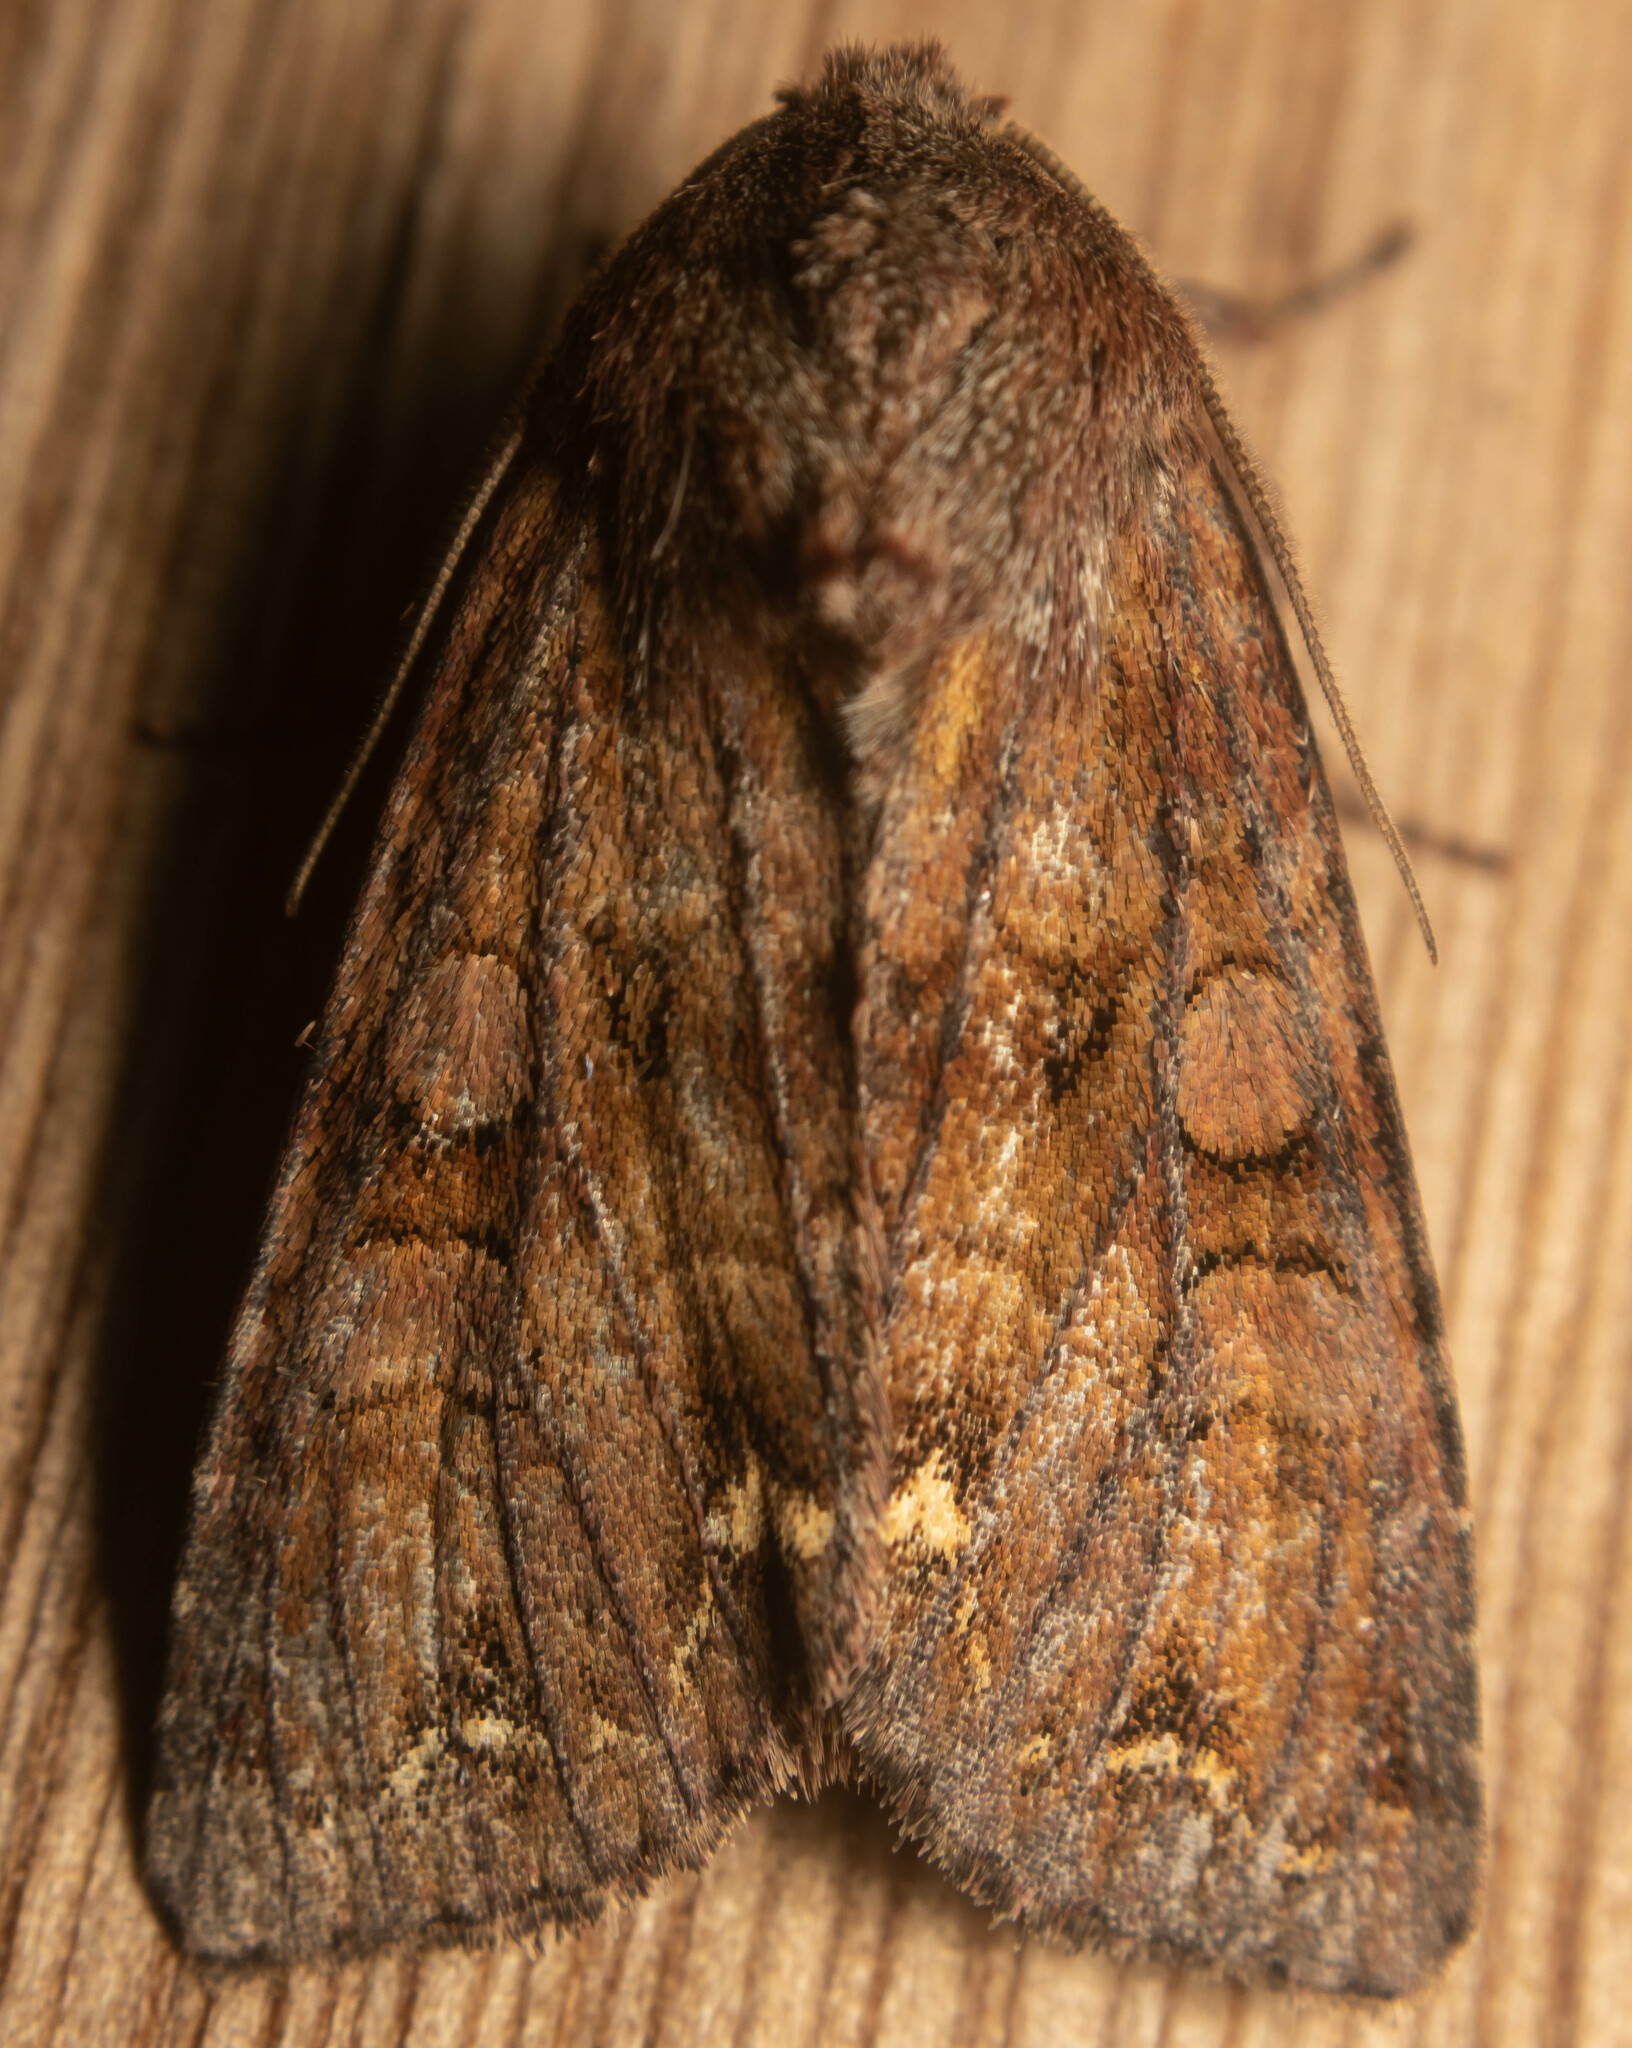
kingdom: Animalia
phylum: Arthropoda
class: Insecta
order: Lepidoptera
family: Noctuidae
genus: Ceramica
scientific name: Ceramica pisi
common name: Broom moth
